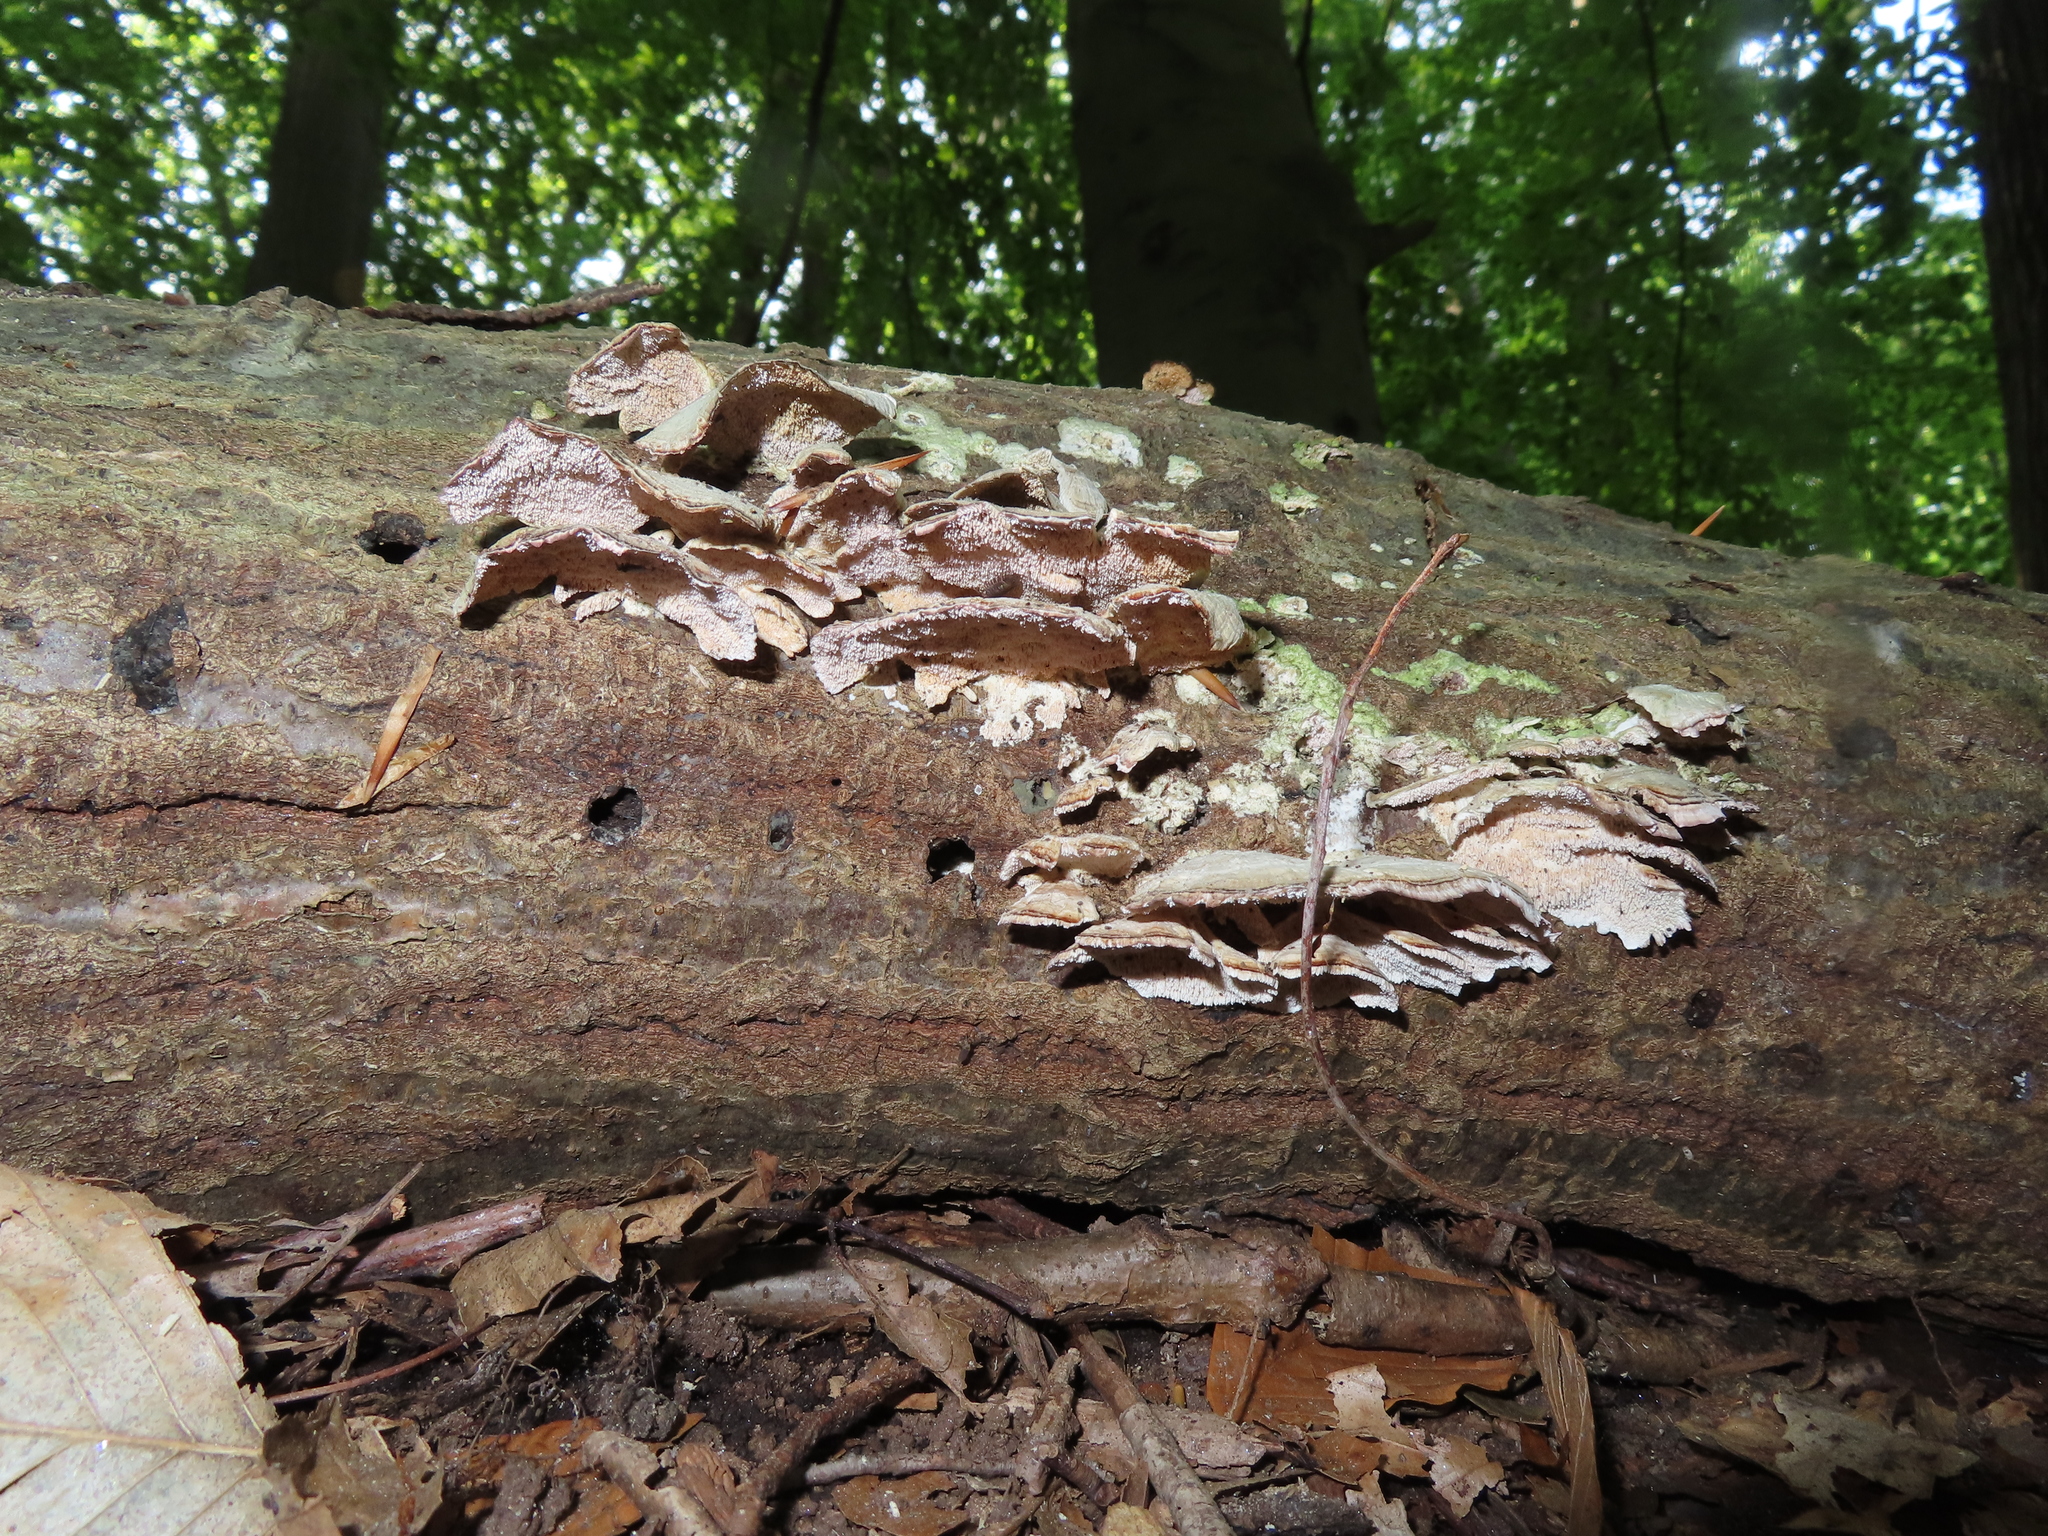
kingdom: Fungi
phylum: Basidiomycota
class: Agaricomycetes
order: Hymenochaetales
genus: Trichaptum
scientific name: Trichaptum biforme
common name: Violet-toothed polypore
